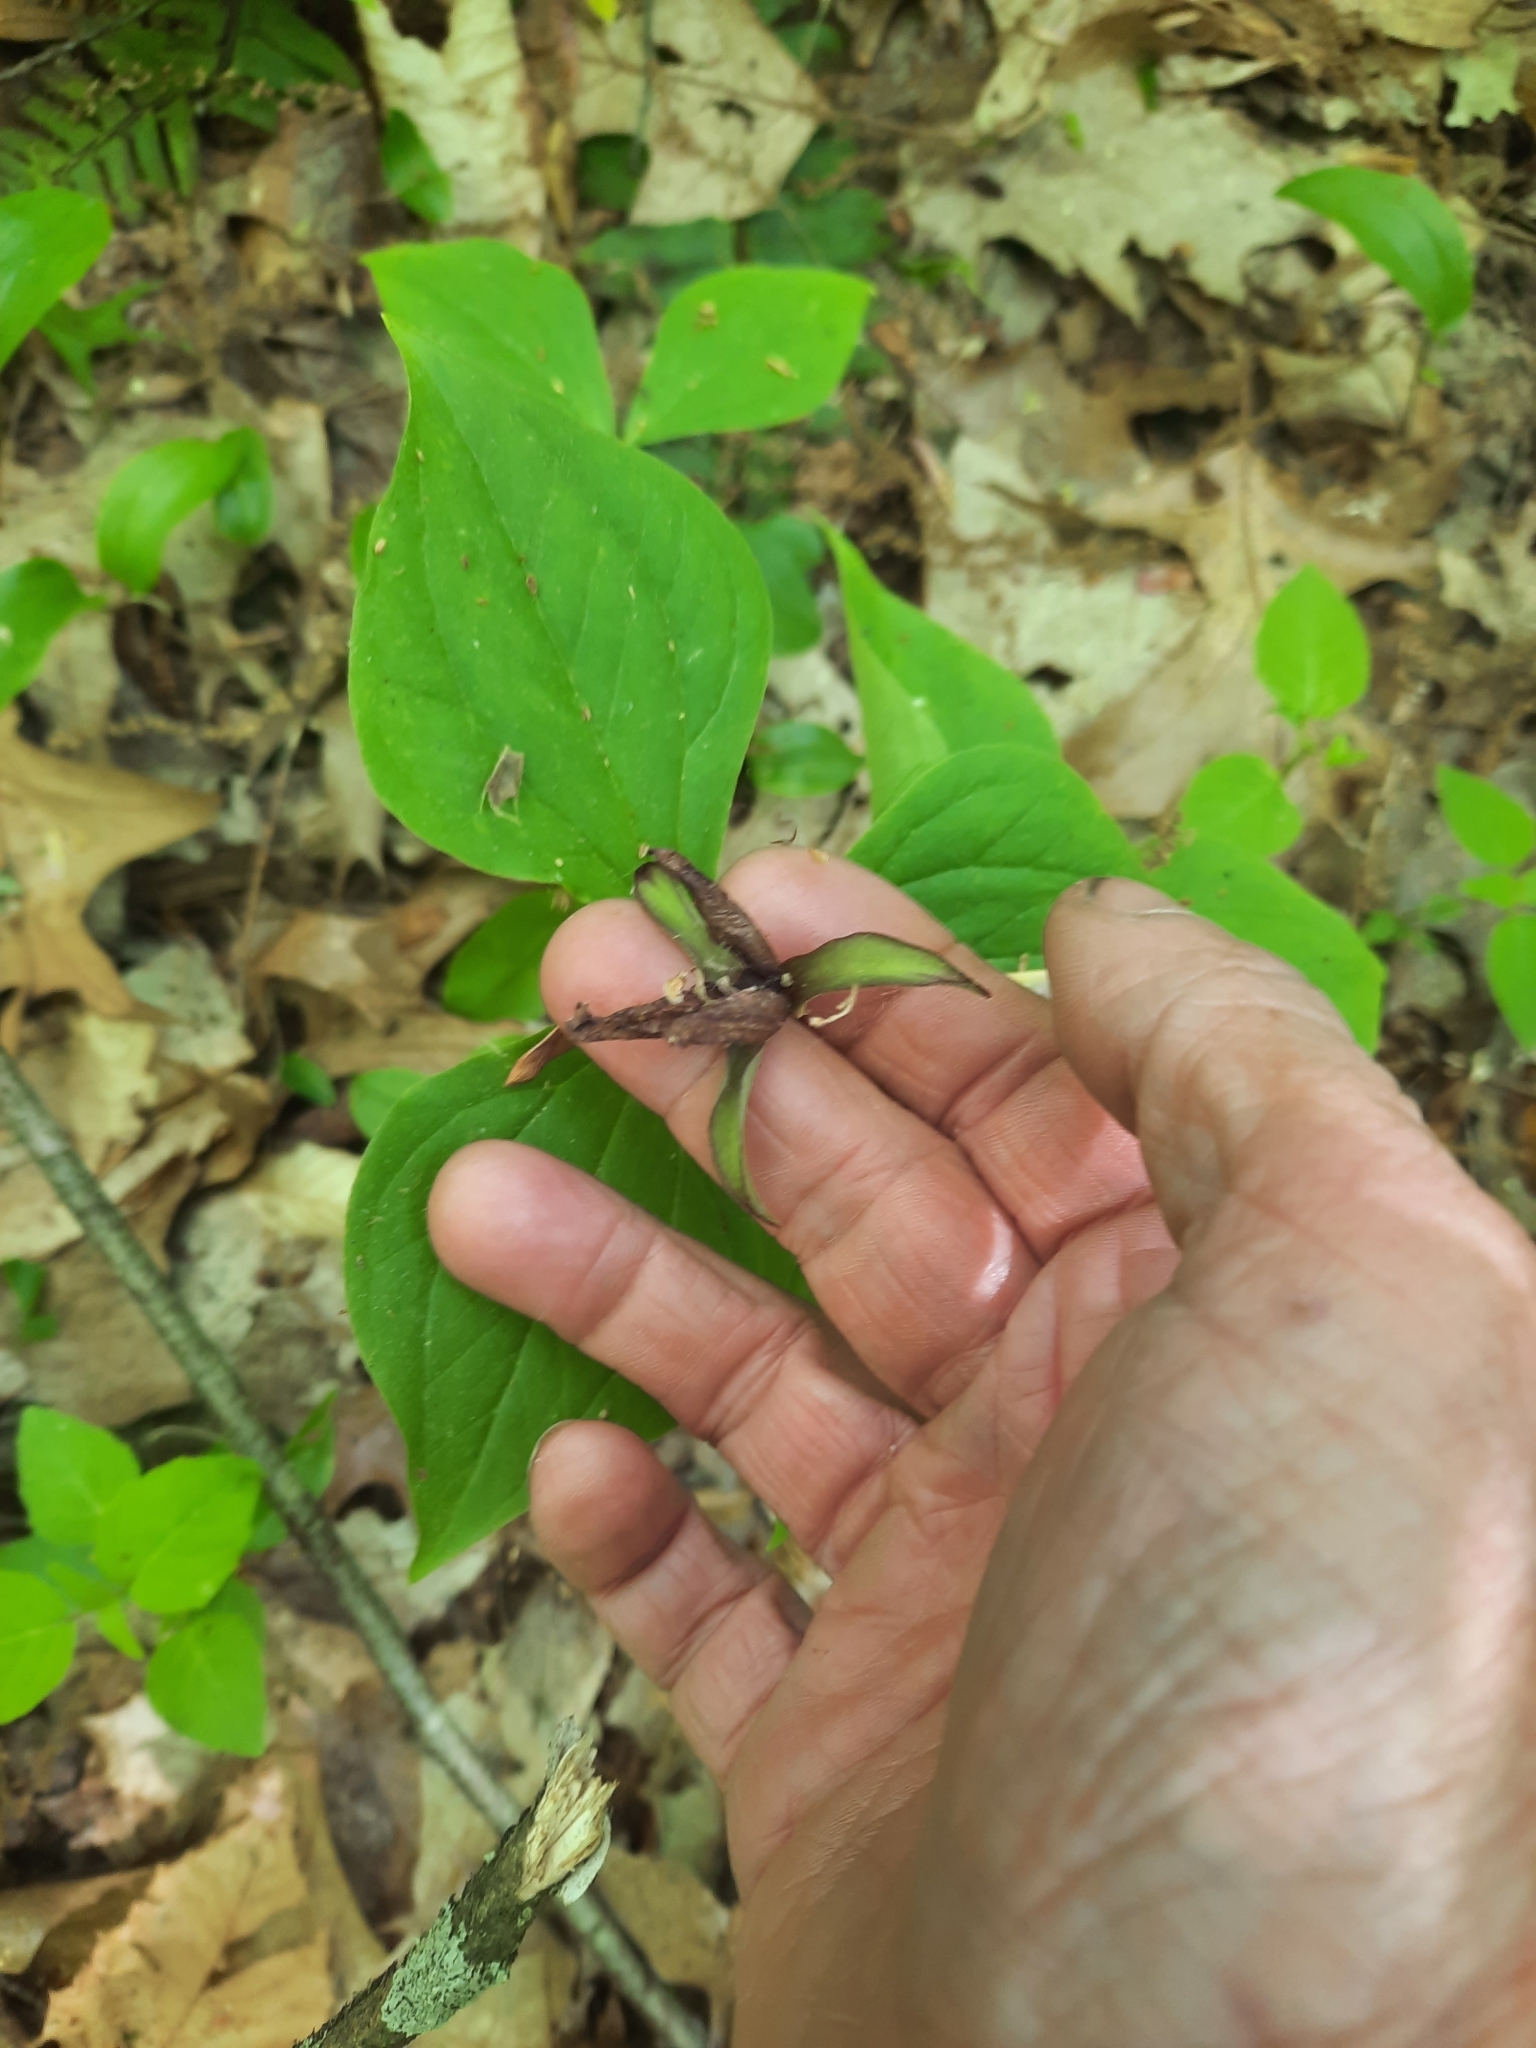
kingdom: Plantae
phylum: Tracheophyta
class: Liliopsida
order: Liliales
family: Melanthiaceae
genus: Trillium
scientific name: Trillium erectum
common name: Purple trillium
